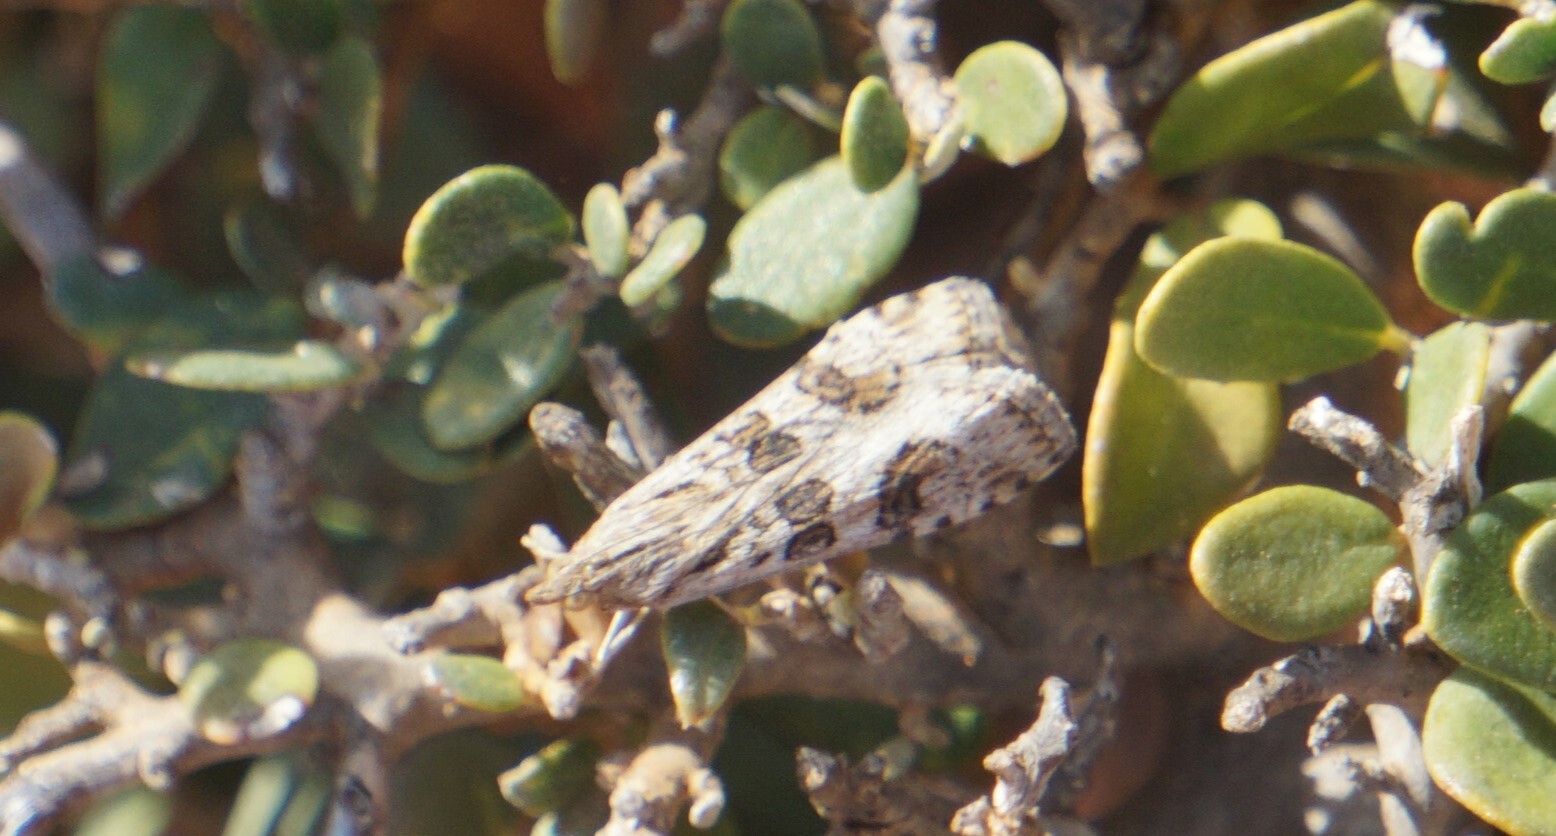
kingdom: Animalia
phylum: Arthropoda
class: Insecta
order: Lepidoptera
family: Crambidae
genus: Nomophila
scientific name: Nomophila noctuella
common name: Rush veneer
